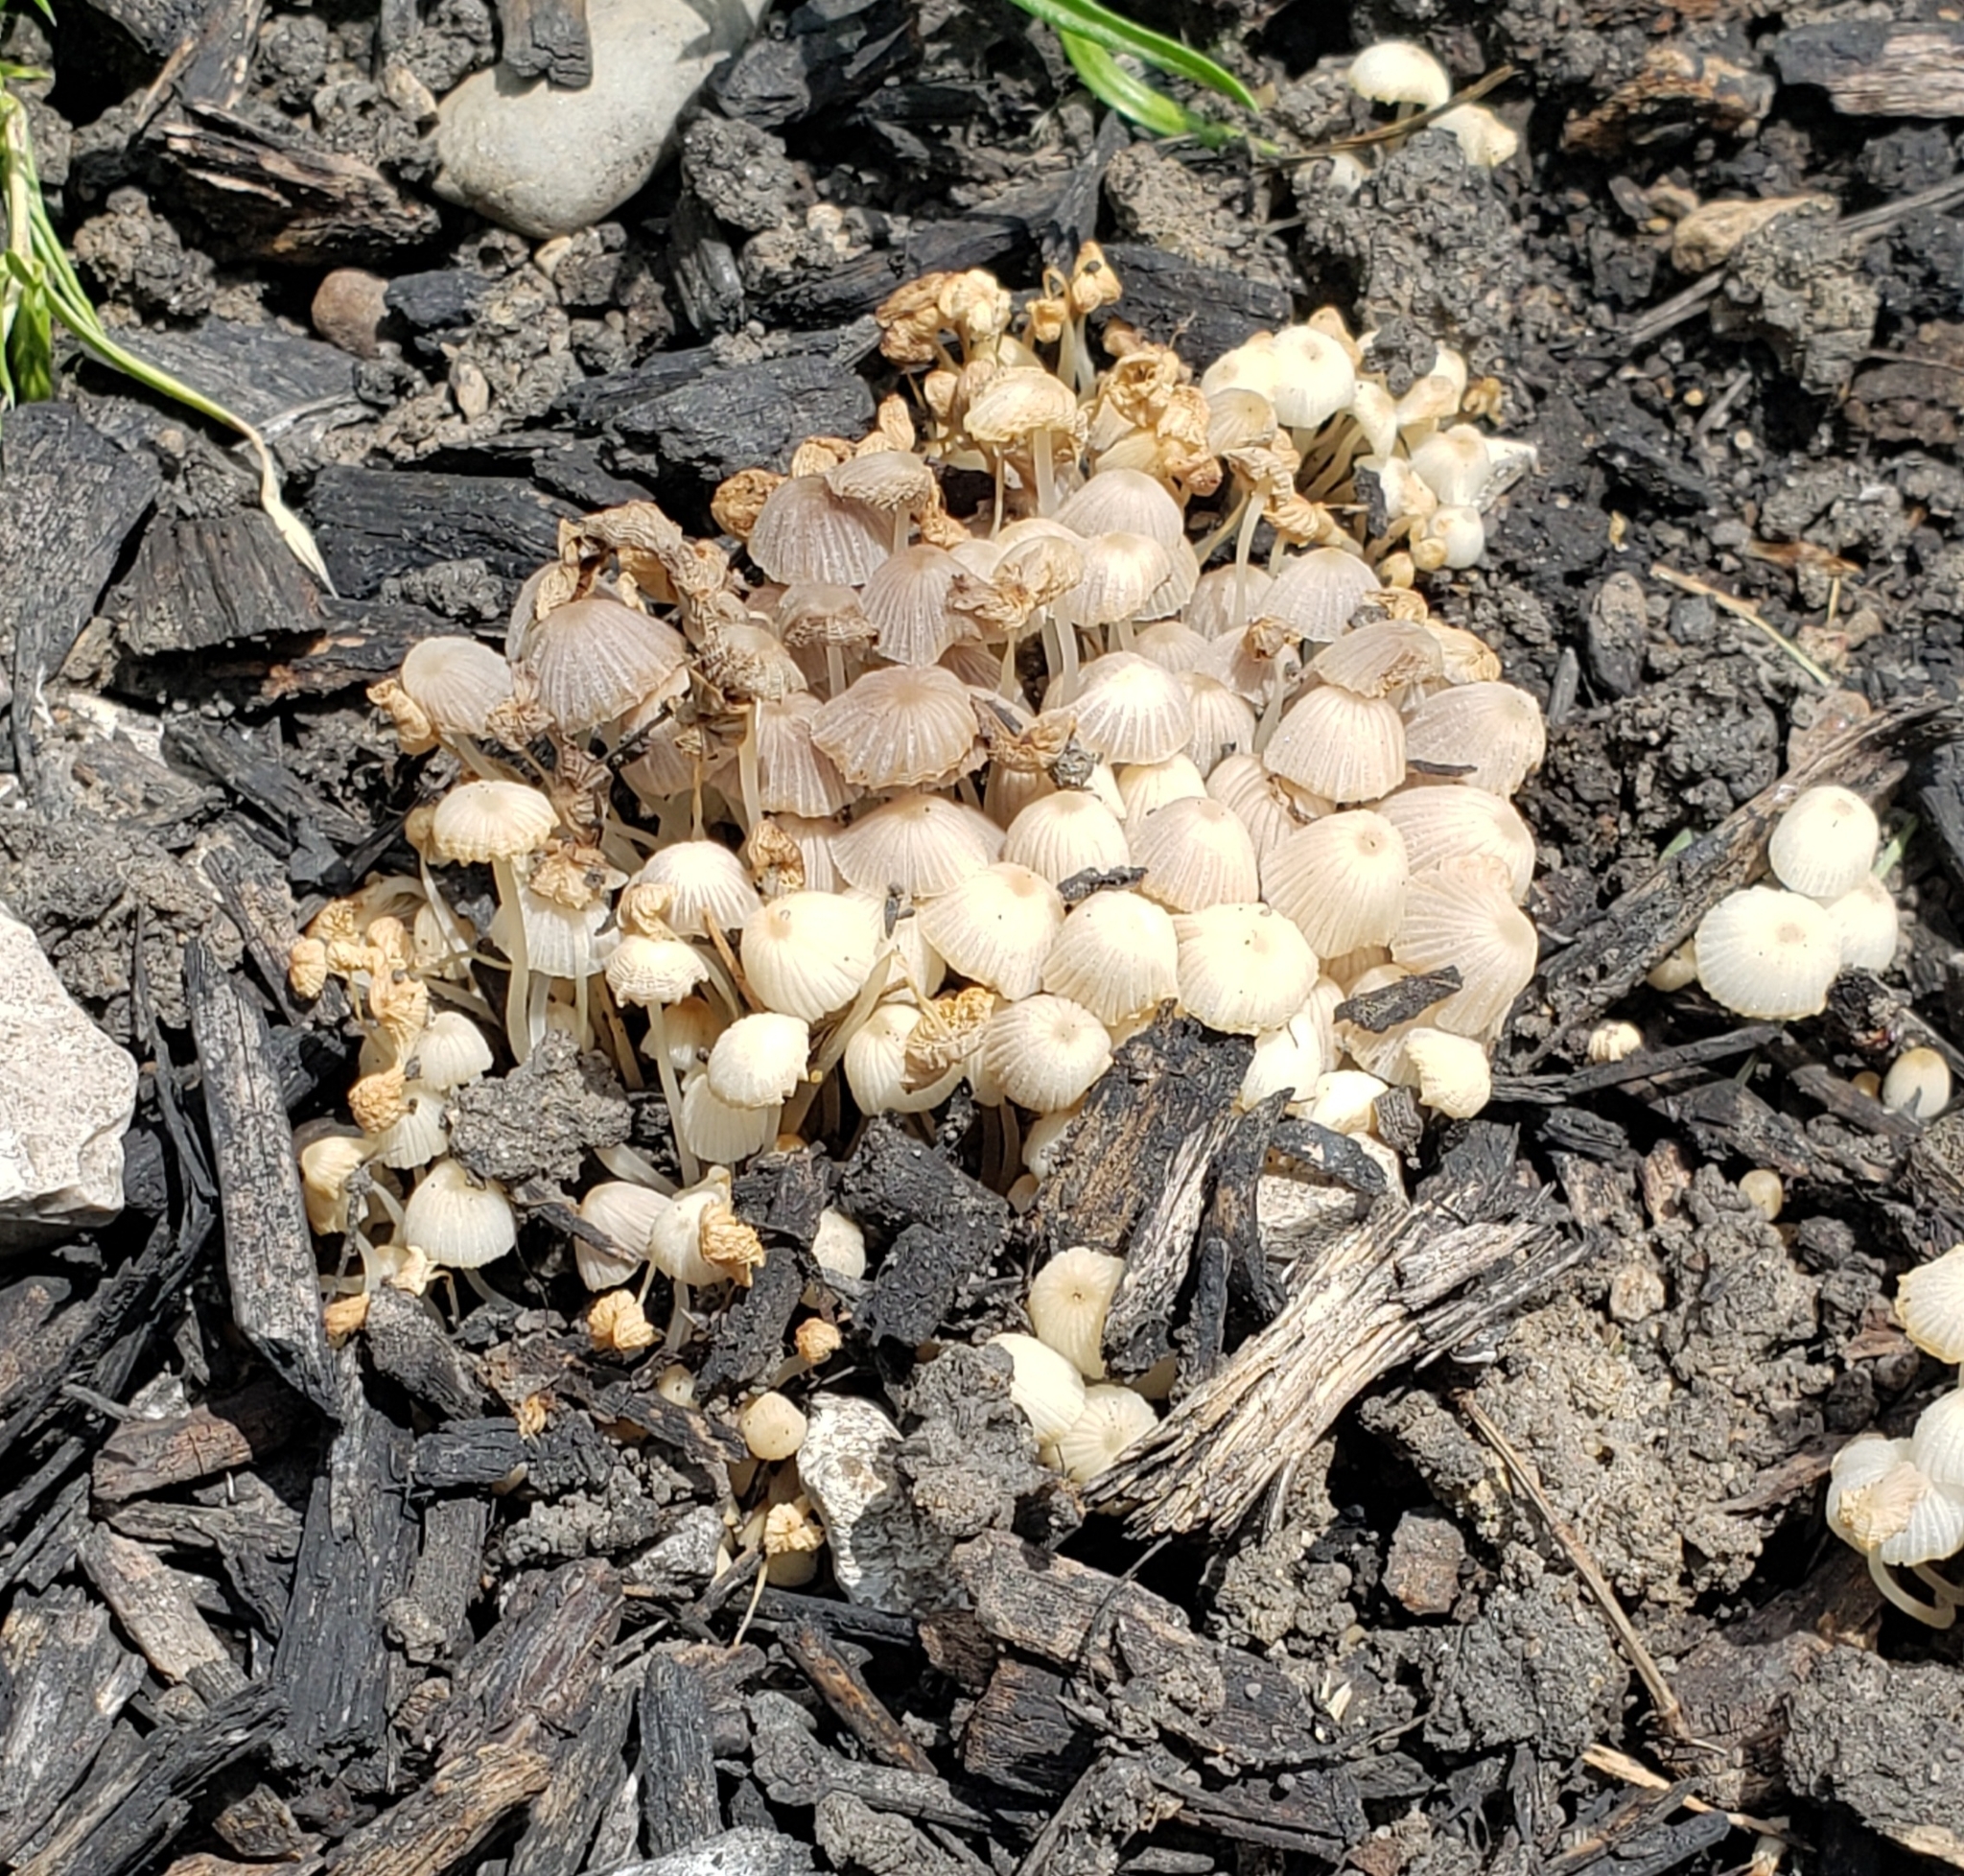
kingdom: Fungi
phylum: Basidiomycota
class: Agaricomycetes
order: Agaricales
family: Psathyrellaceae
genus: Coprinellus
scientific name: Coprinellus disseminatus
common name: Fairies' bonnets
